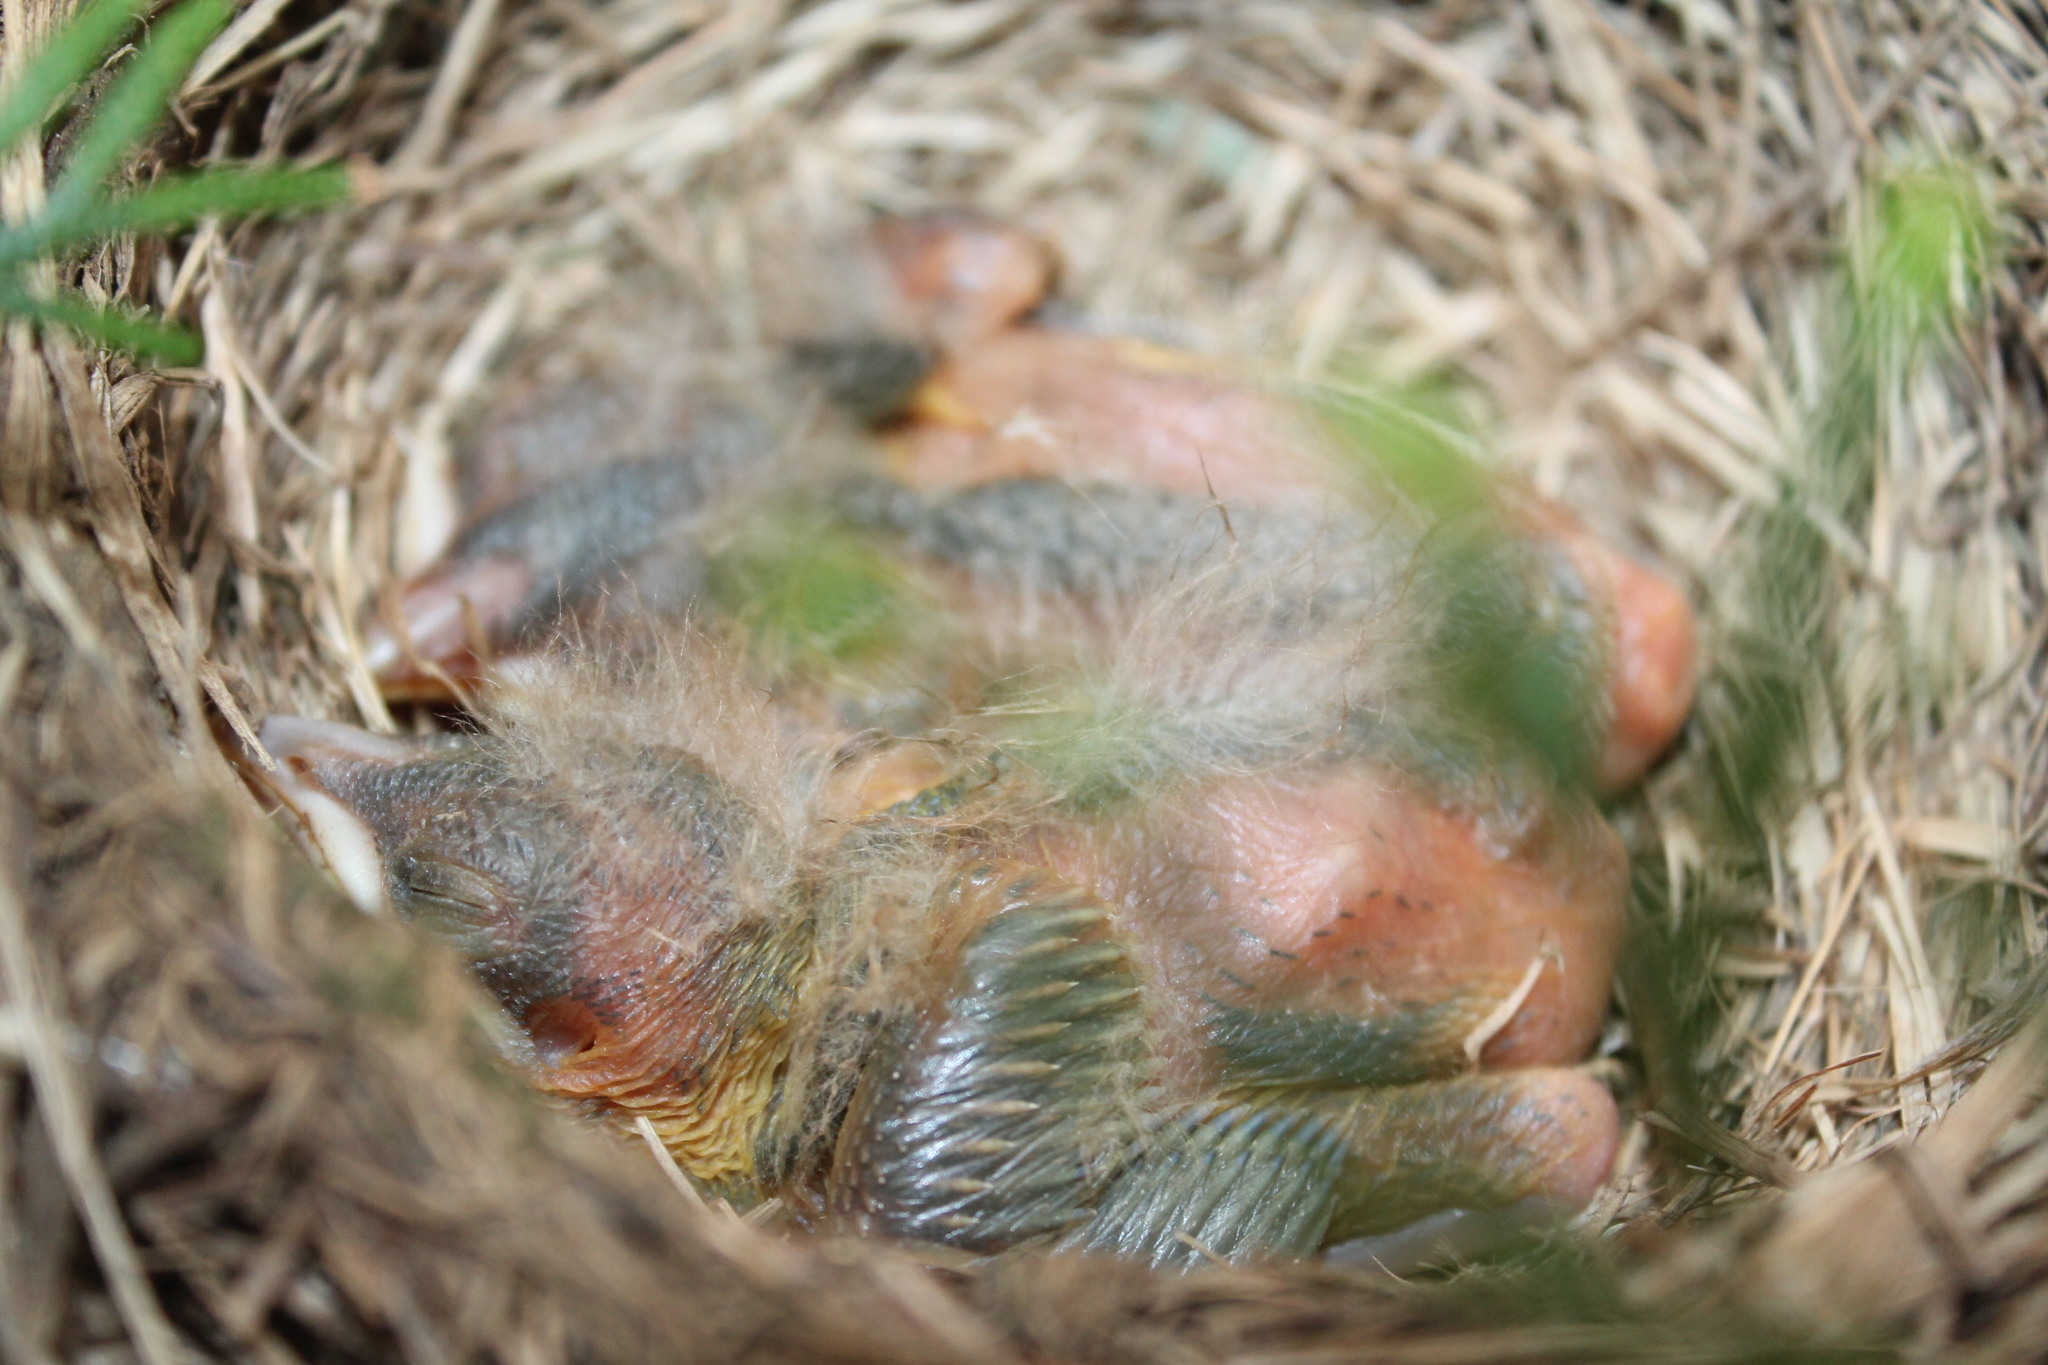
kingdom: Animalia
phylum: Chordata
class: Aves
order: Passeriformes
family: Turdidae
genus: Turdus
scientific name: Turdus migratorius
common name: American robin
